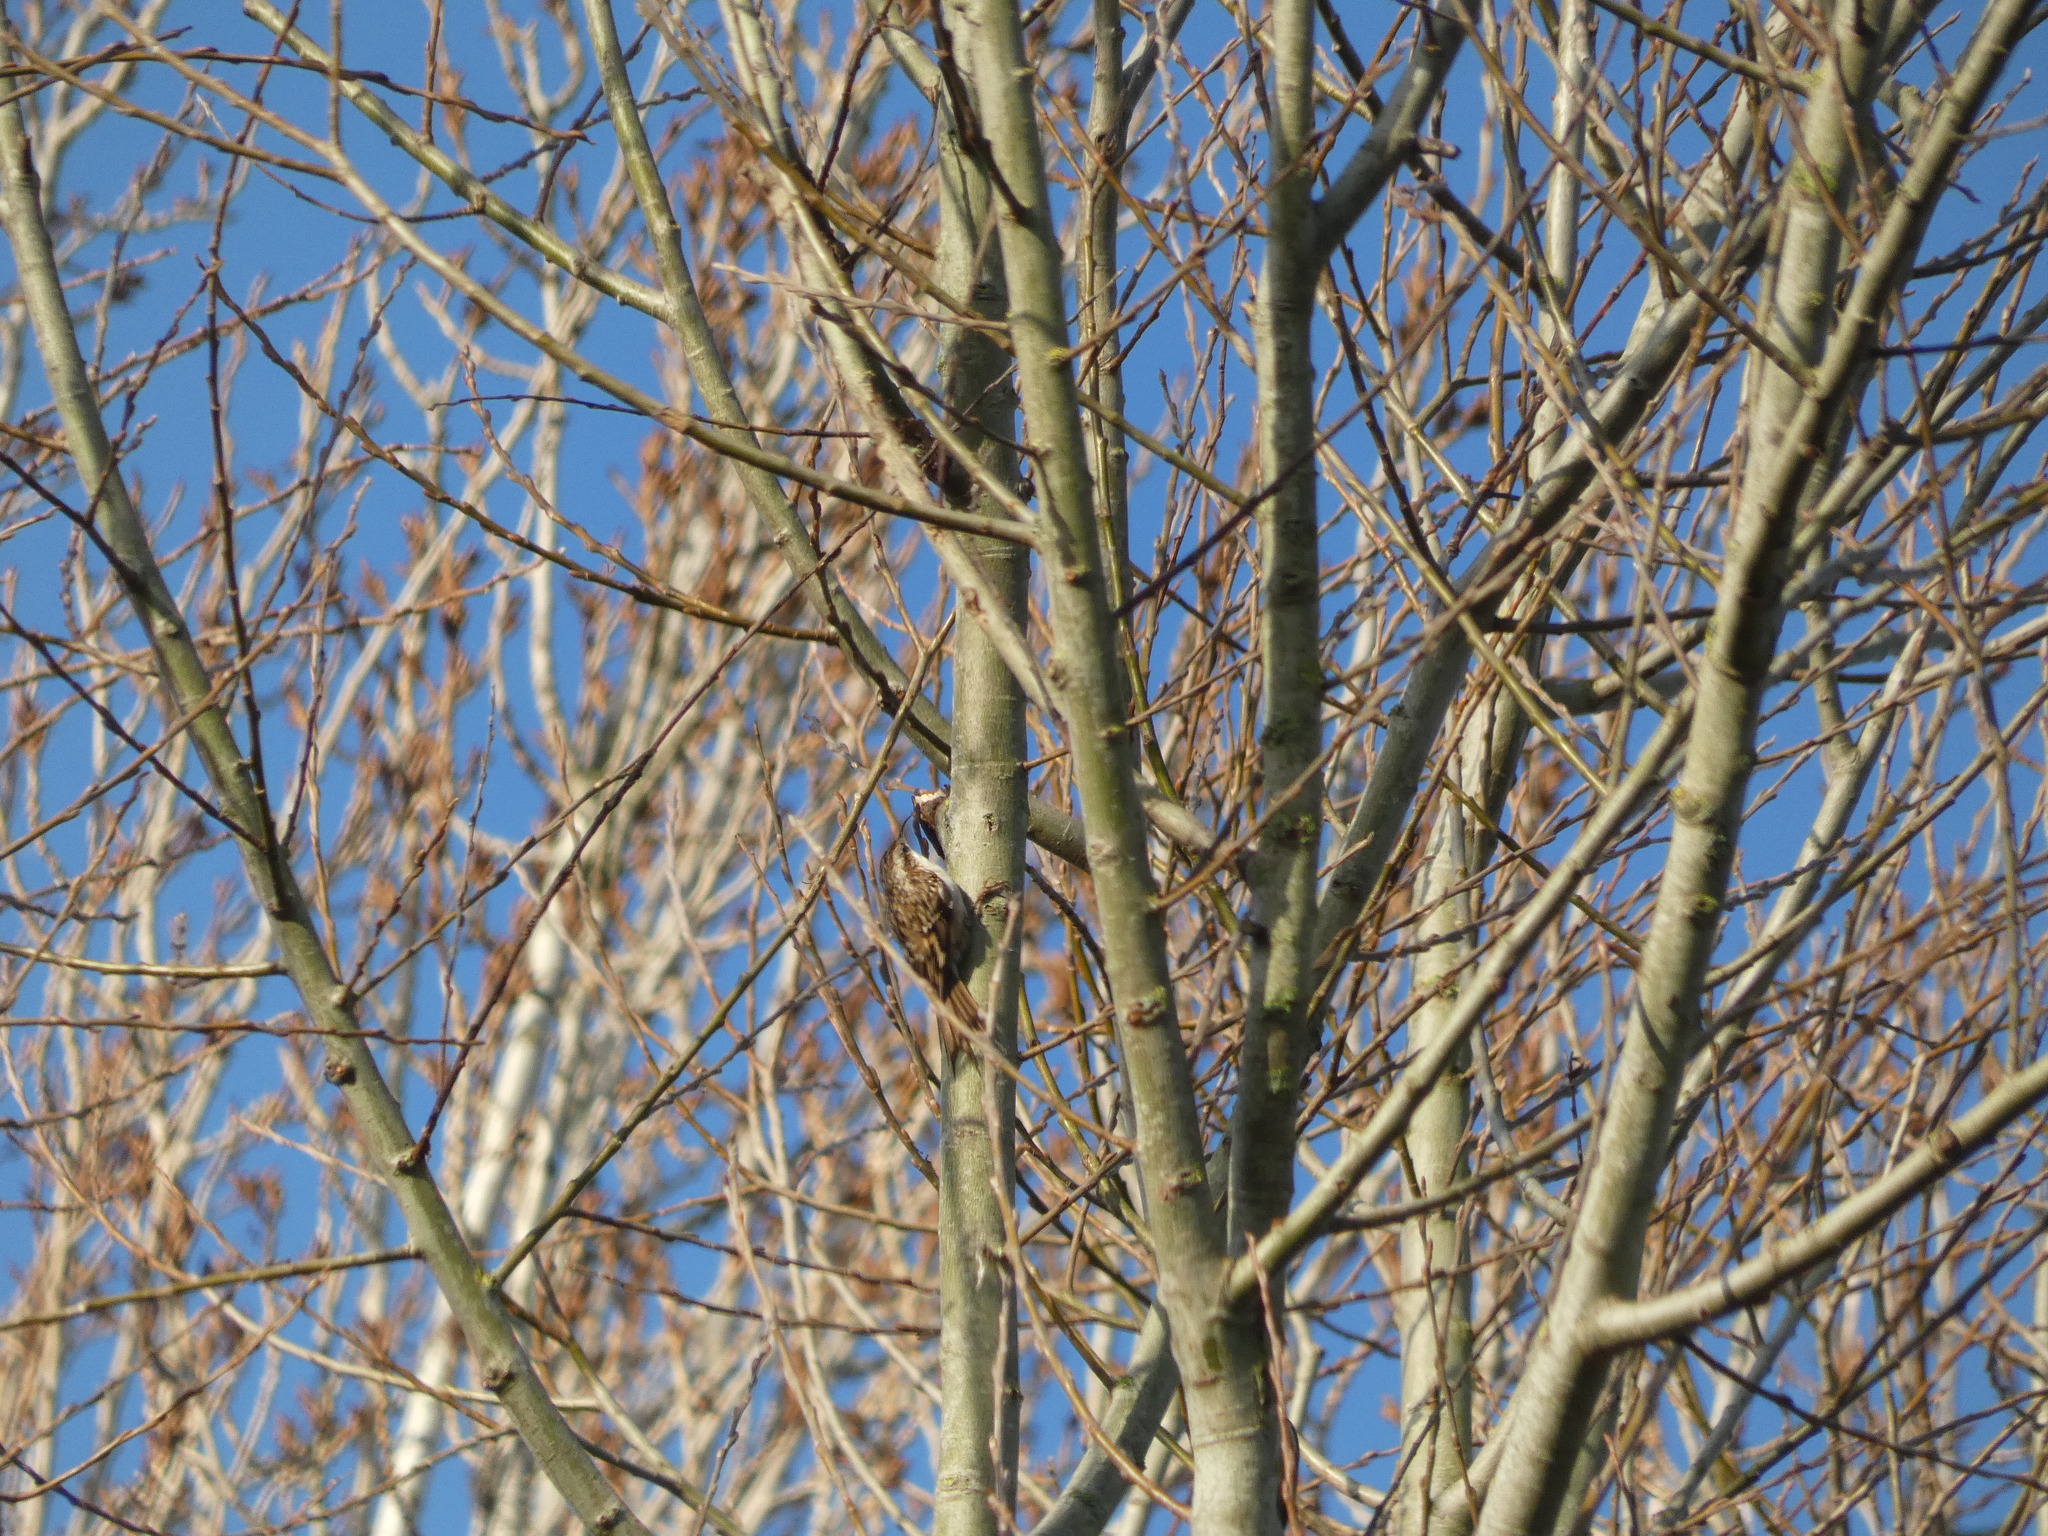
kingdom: Animalia
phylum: Chordata
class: Aves
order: Passeriformes
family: Certhiidae
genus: Certhia
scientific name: Certhia brachydactyla
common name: Short-toed treecreeper
